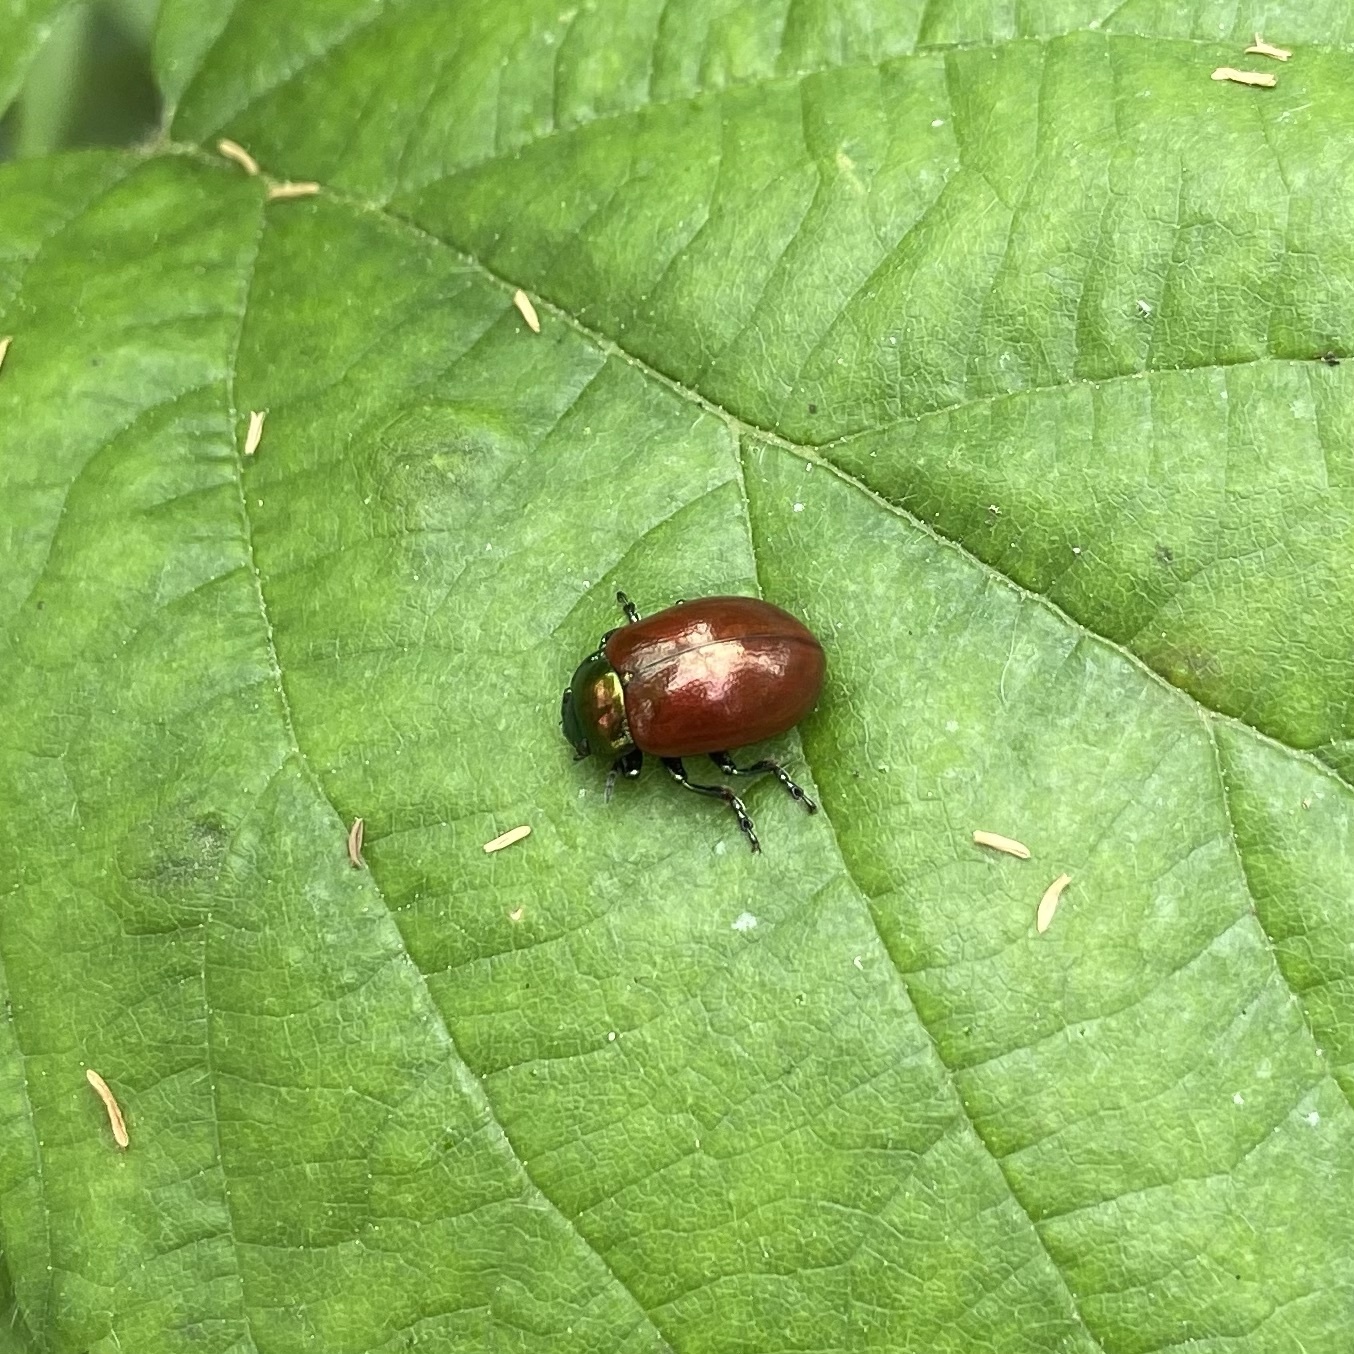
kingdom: Animalia
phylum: Arthropoda
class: Insecta
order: Coleoptera
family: Chrysomelidae
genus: Chrysomela
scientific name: Chrysomela polita
